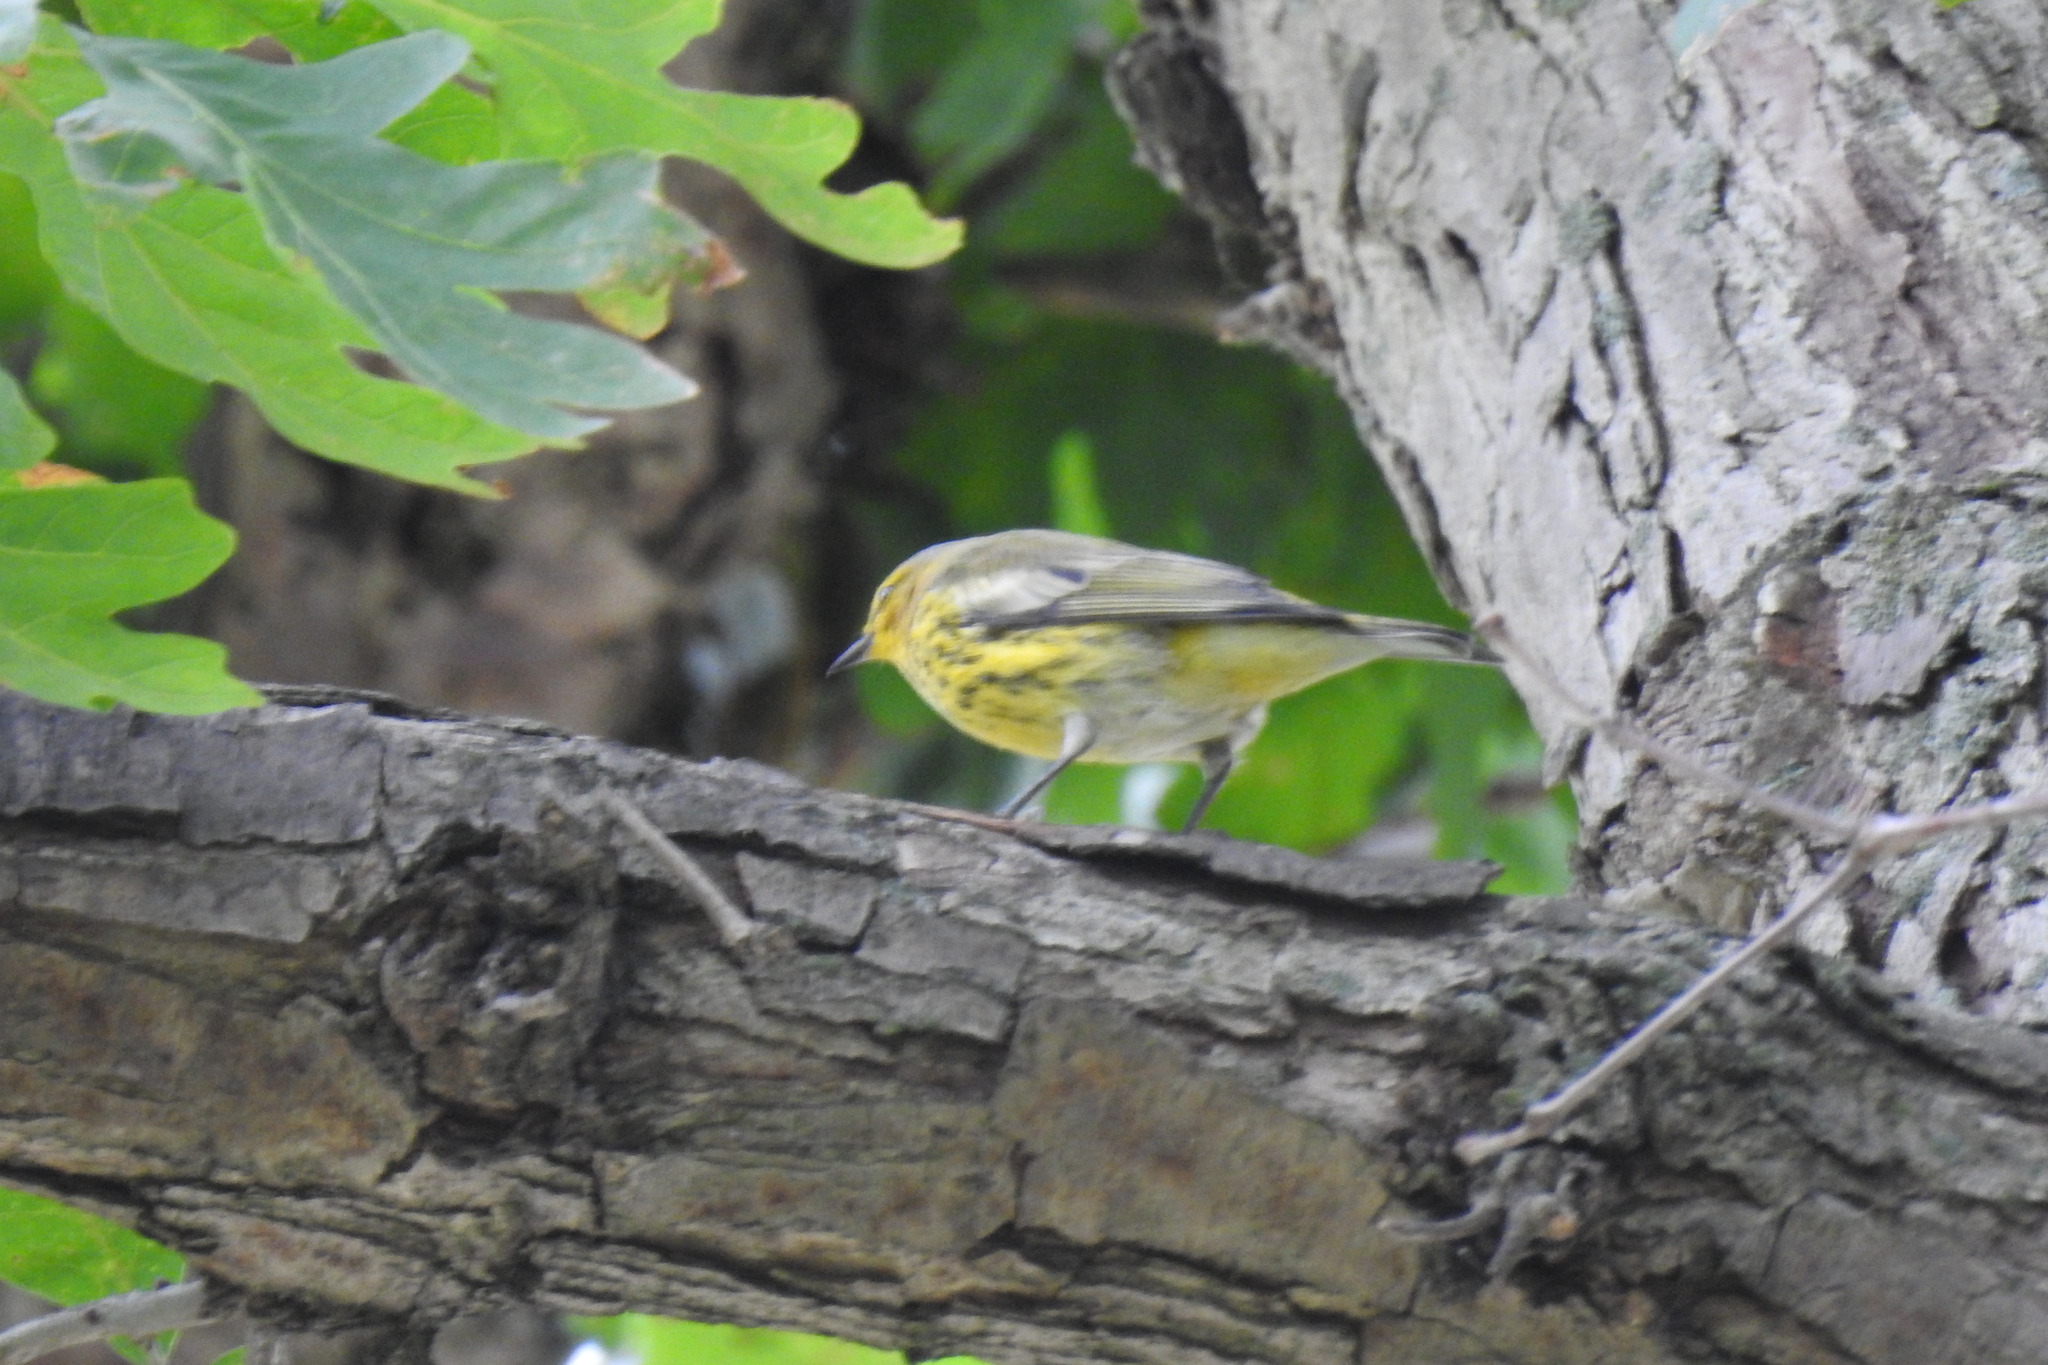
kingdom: Animalia
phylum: Chordata
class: Aves
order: Passeriformes
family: Parulidae
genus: Setophaga
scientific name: Setophaga tigrina
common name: Cape may warbler
